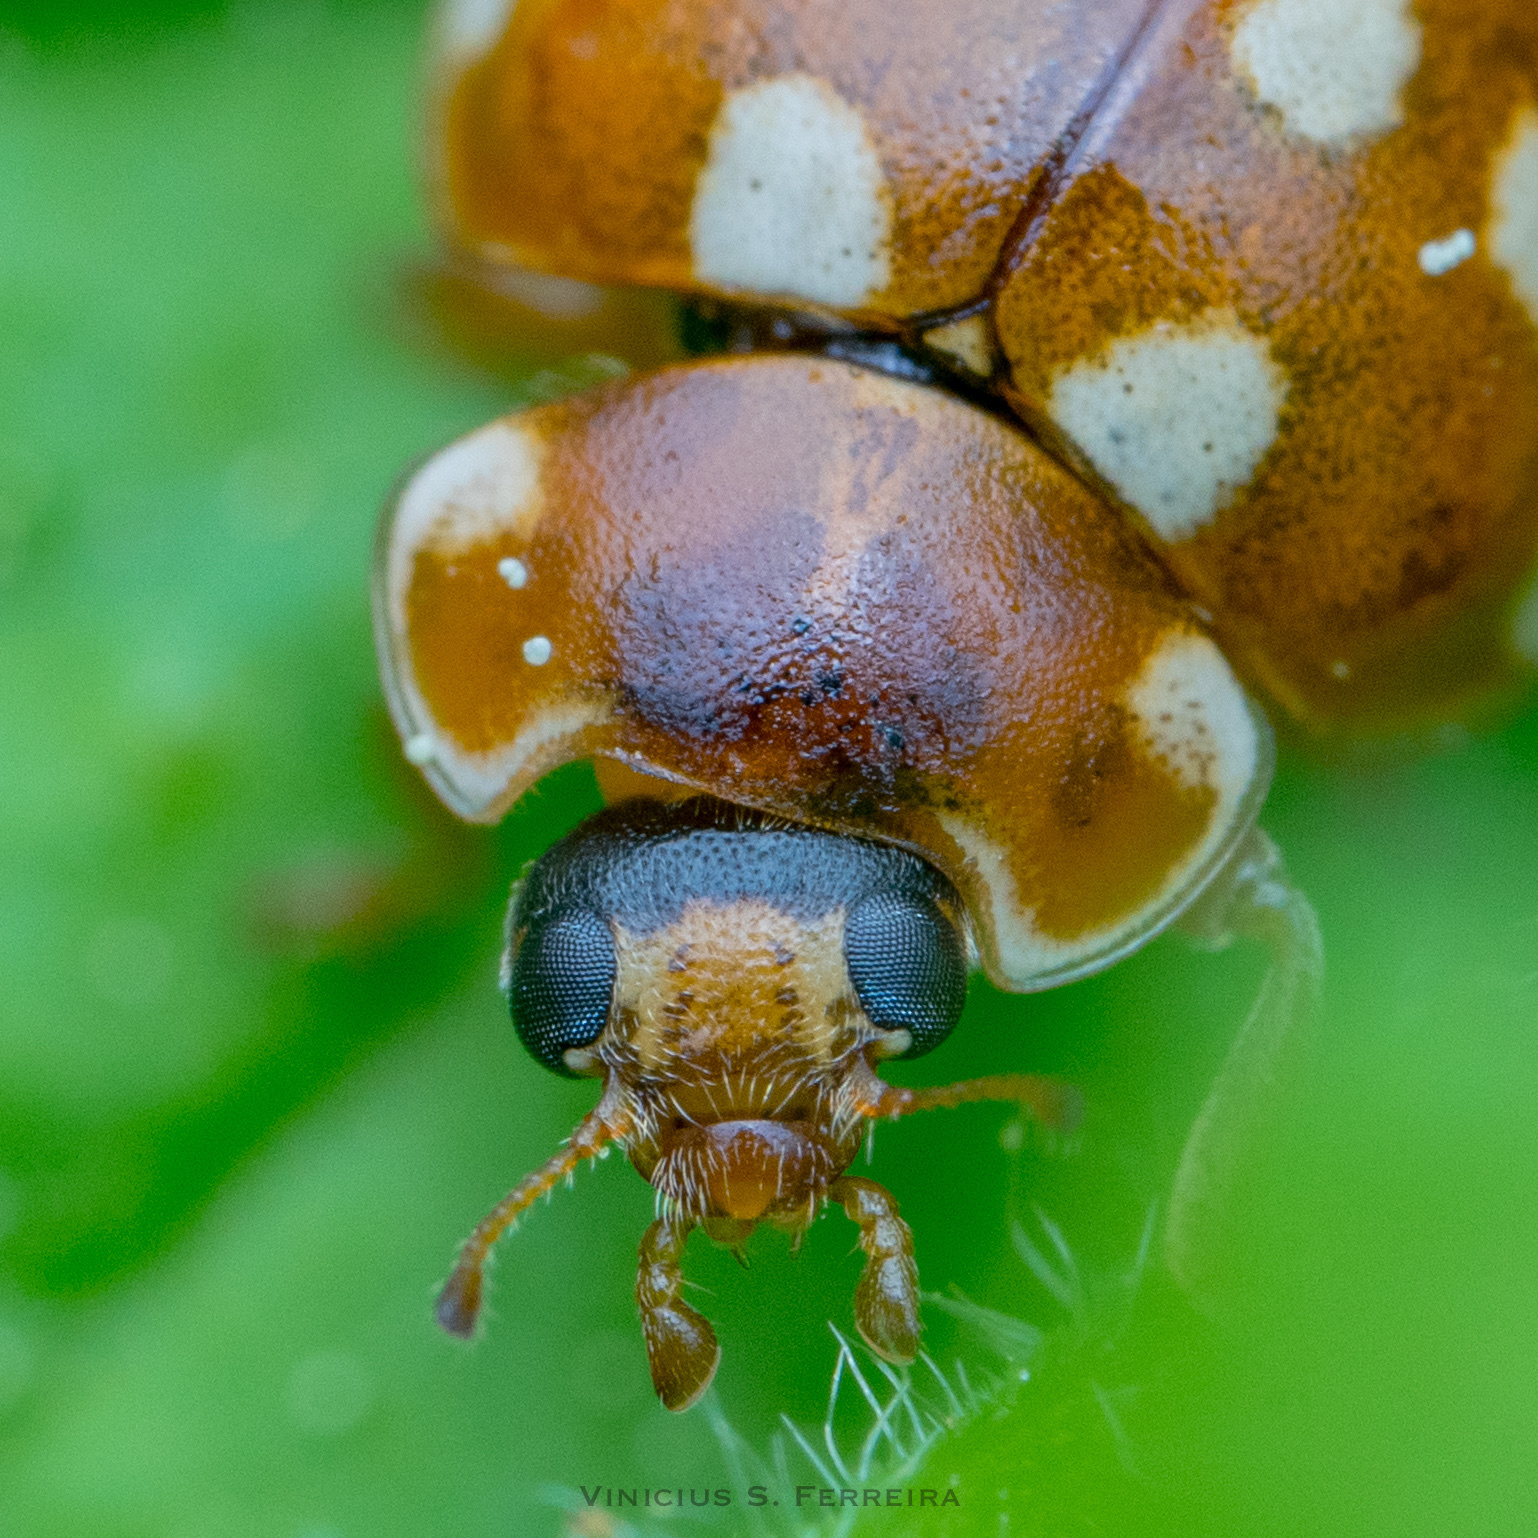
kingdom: Animalia
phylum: Arthropoda
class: Insecta
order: Coleoptera
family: Coccinellidae
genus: Calvia
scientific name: Calvia quatuordecimguttata
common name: Cream-spot ladybird
